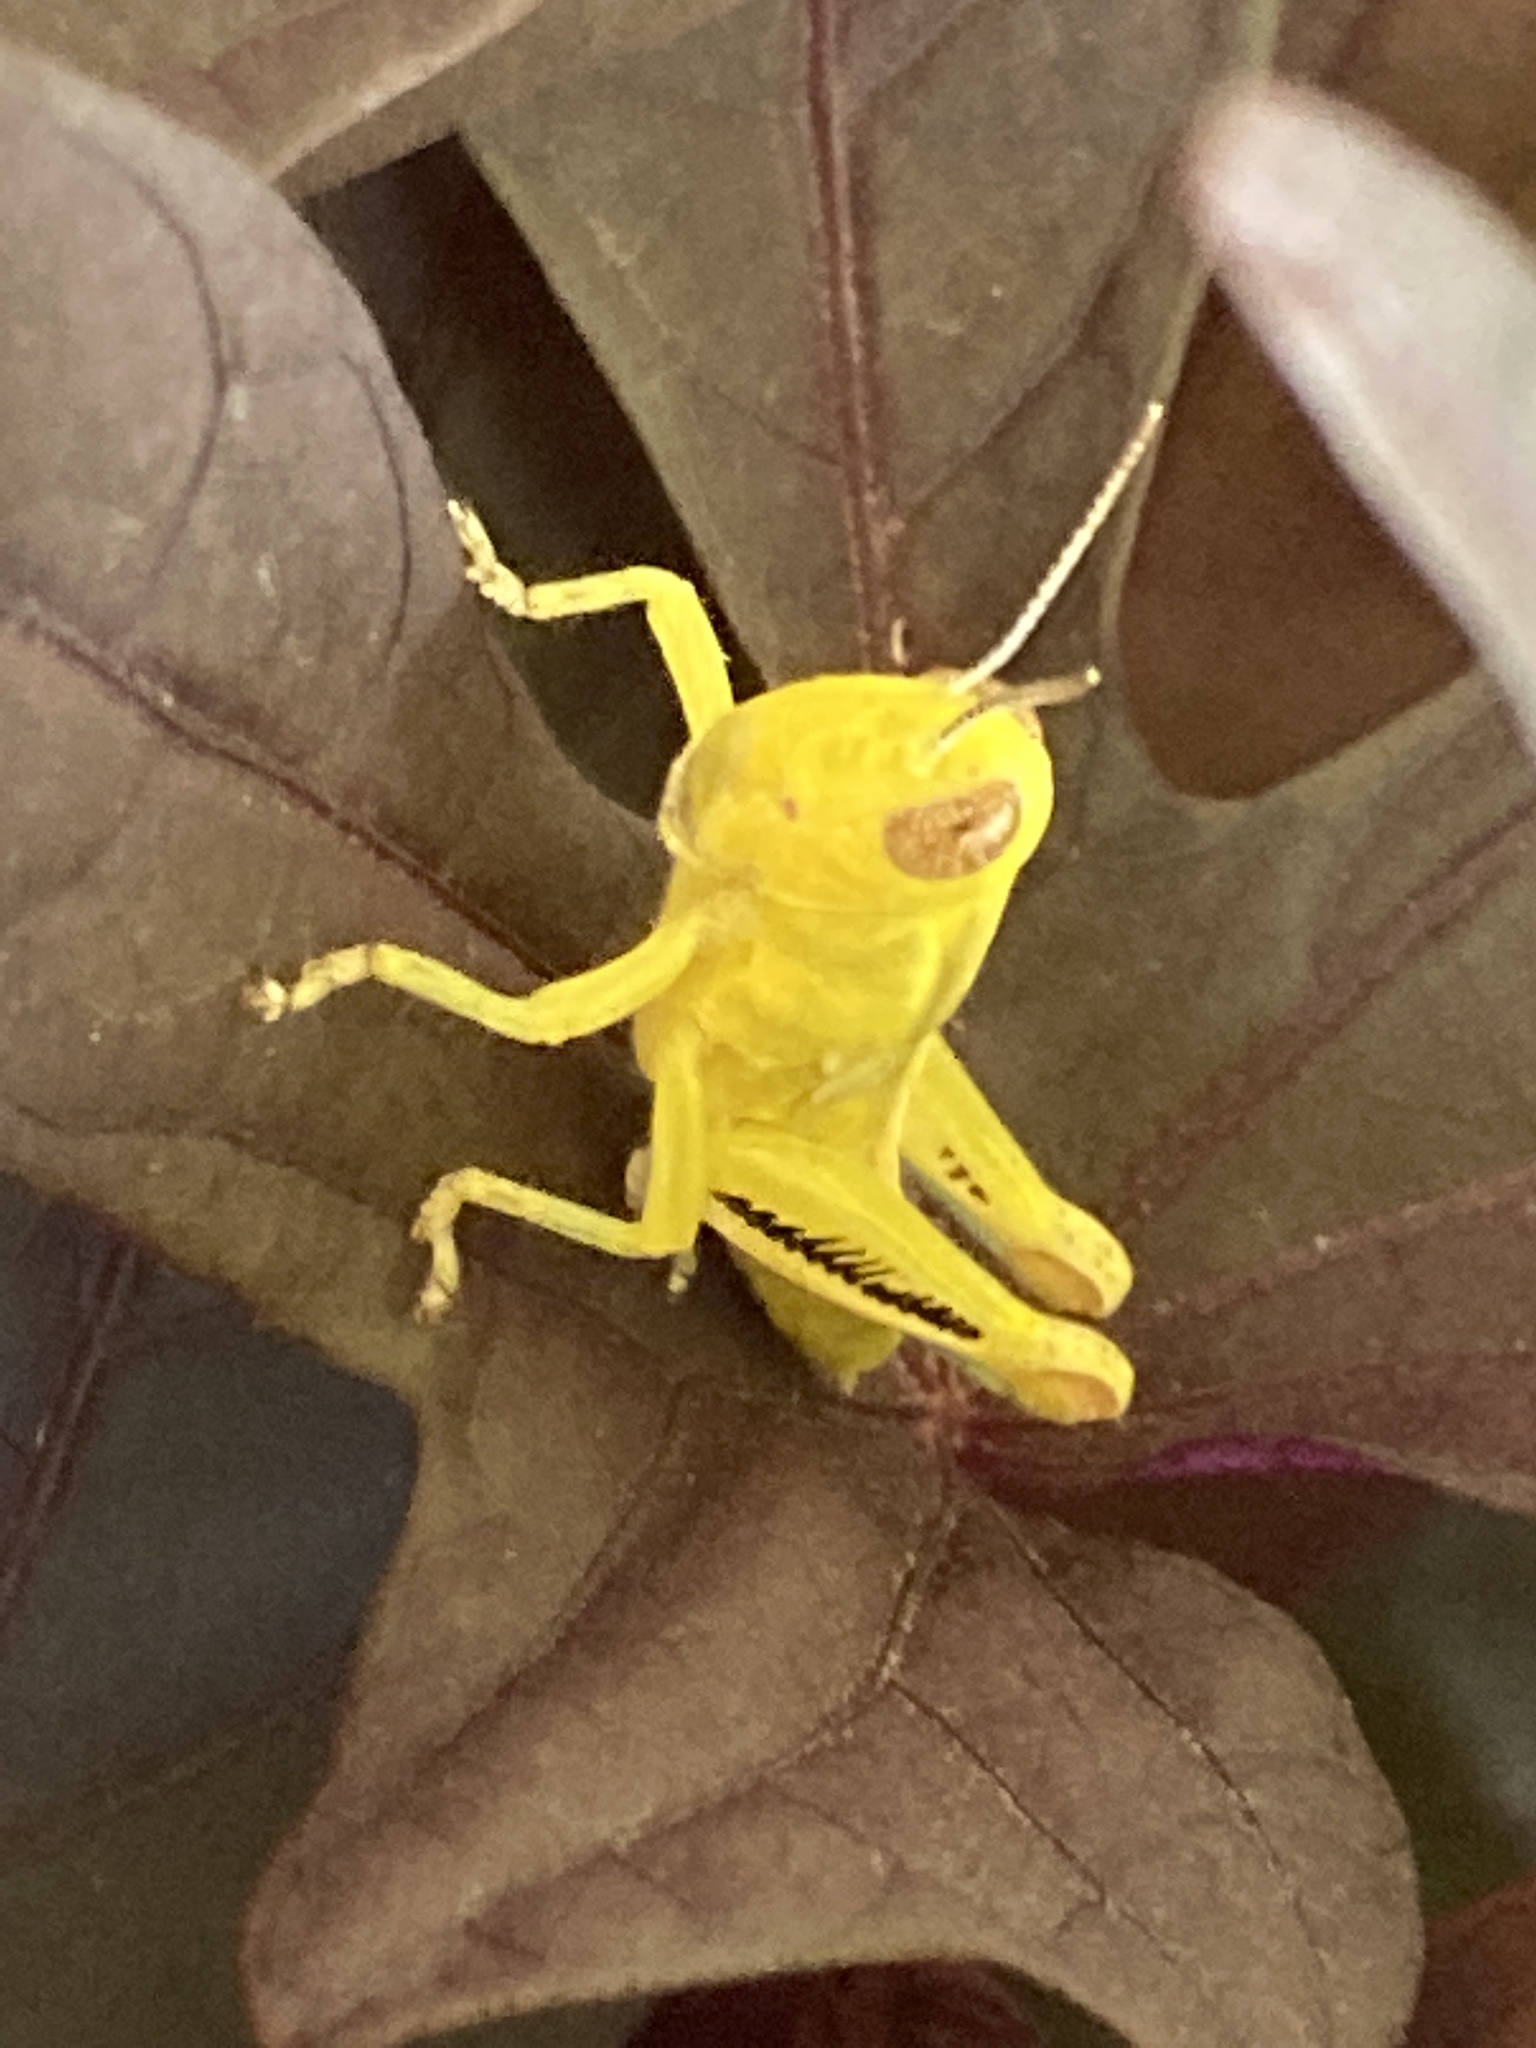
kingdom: Animalia
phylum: Arthropoda
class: Insecta
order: Orthoptera
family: Acrididae
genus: Melanoplus
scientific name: Melanoplus differentialis
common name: Differential grasshopper
